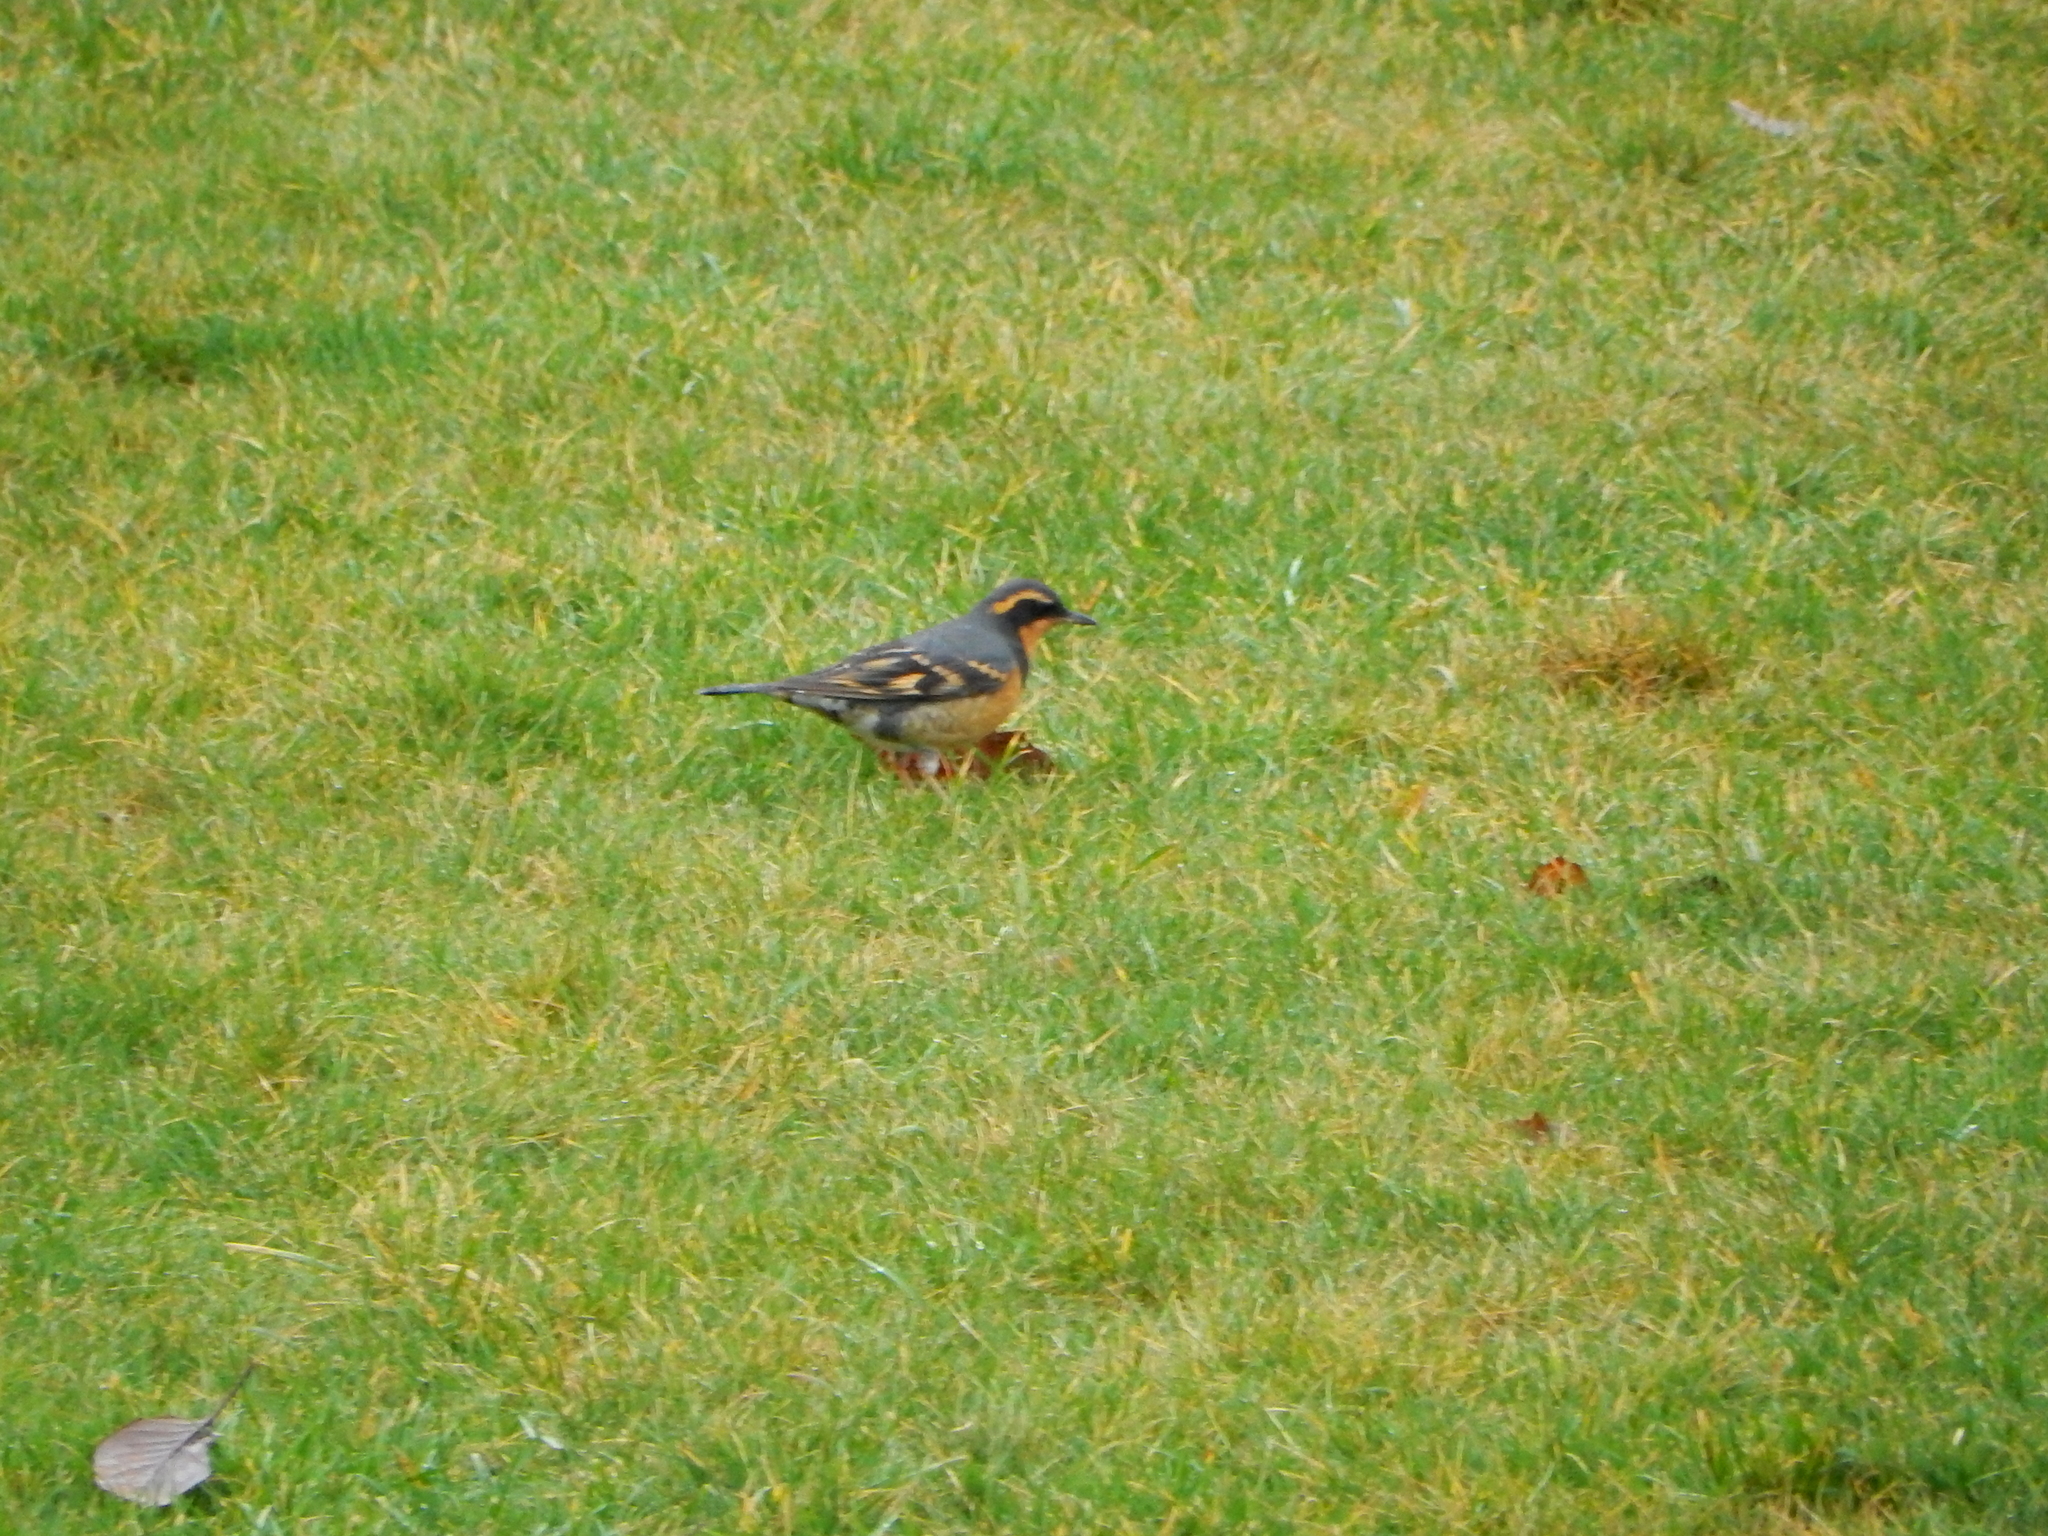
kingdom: Animalia
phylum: Chordata
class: Aves
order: Passeriformes
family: Turdidae
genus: Ixoreus
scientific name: Ixoreus naevius
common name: Varied thrush
